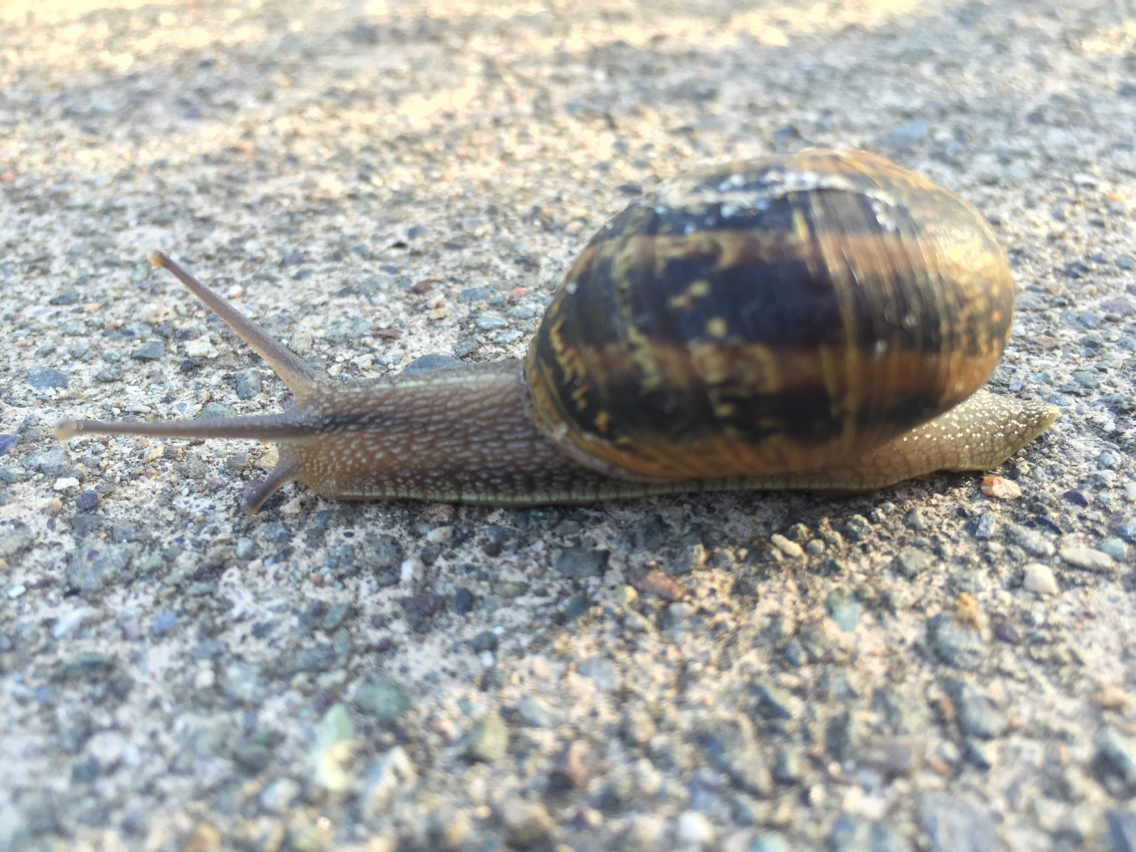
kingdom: Animalia
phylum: Mollusca
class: Gastropoda
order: Stylommatophora
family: Helicidae
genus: Cornu
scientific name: Cornu aspersum
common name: Brown garden snail
